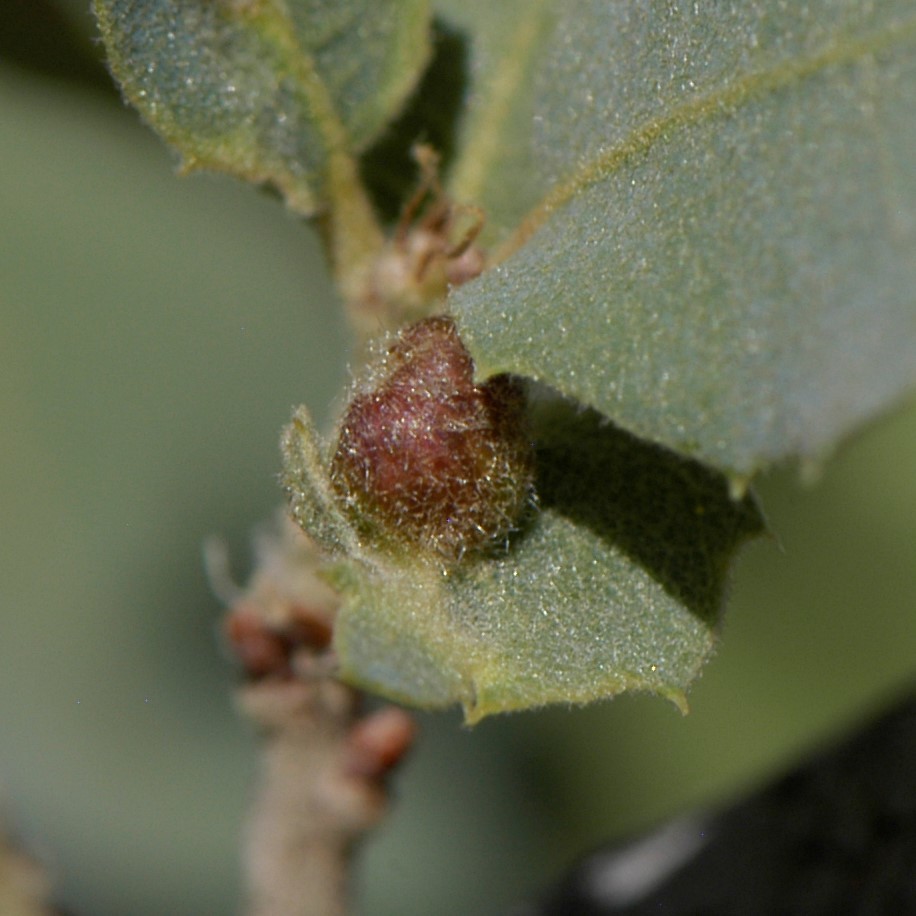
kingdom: Animalia
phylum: Arthropoda
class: Insecta
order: Hymenoptera
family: Cynipidae
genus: Andricus
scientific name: Andricus
